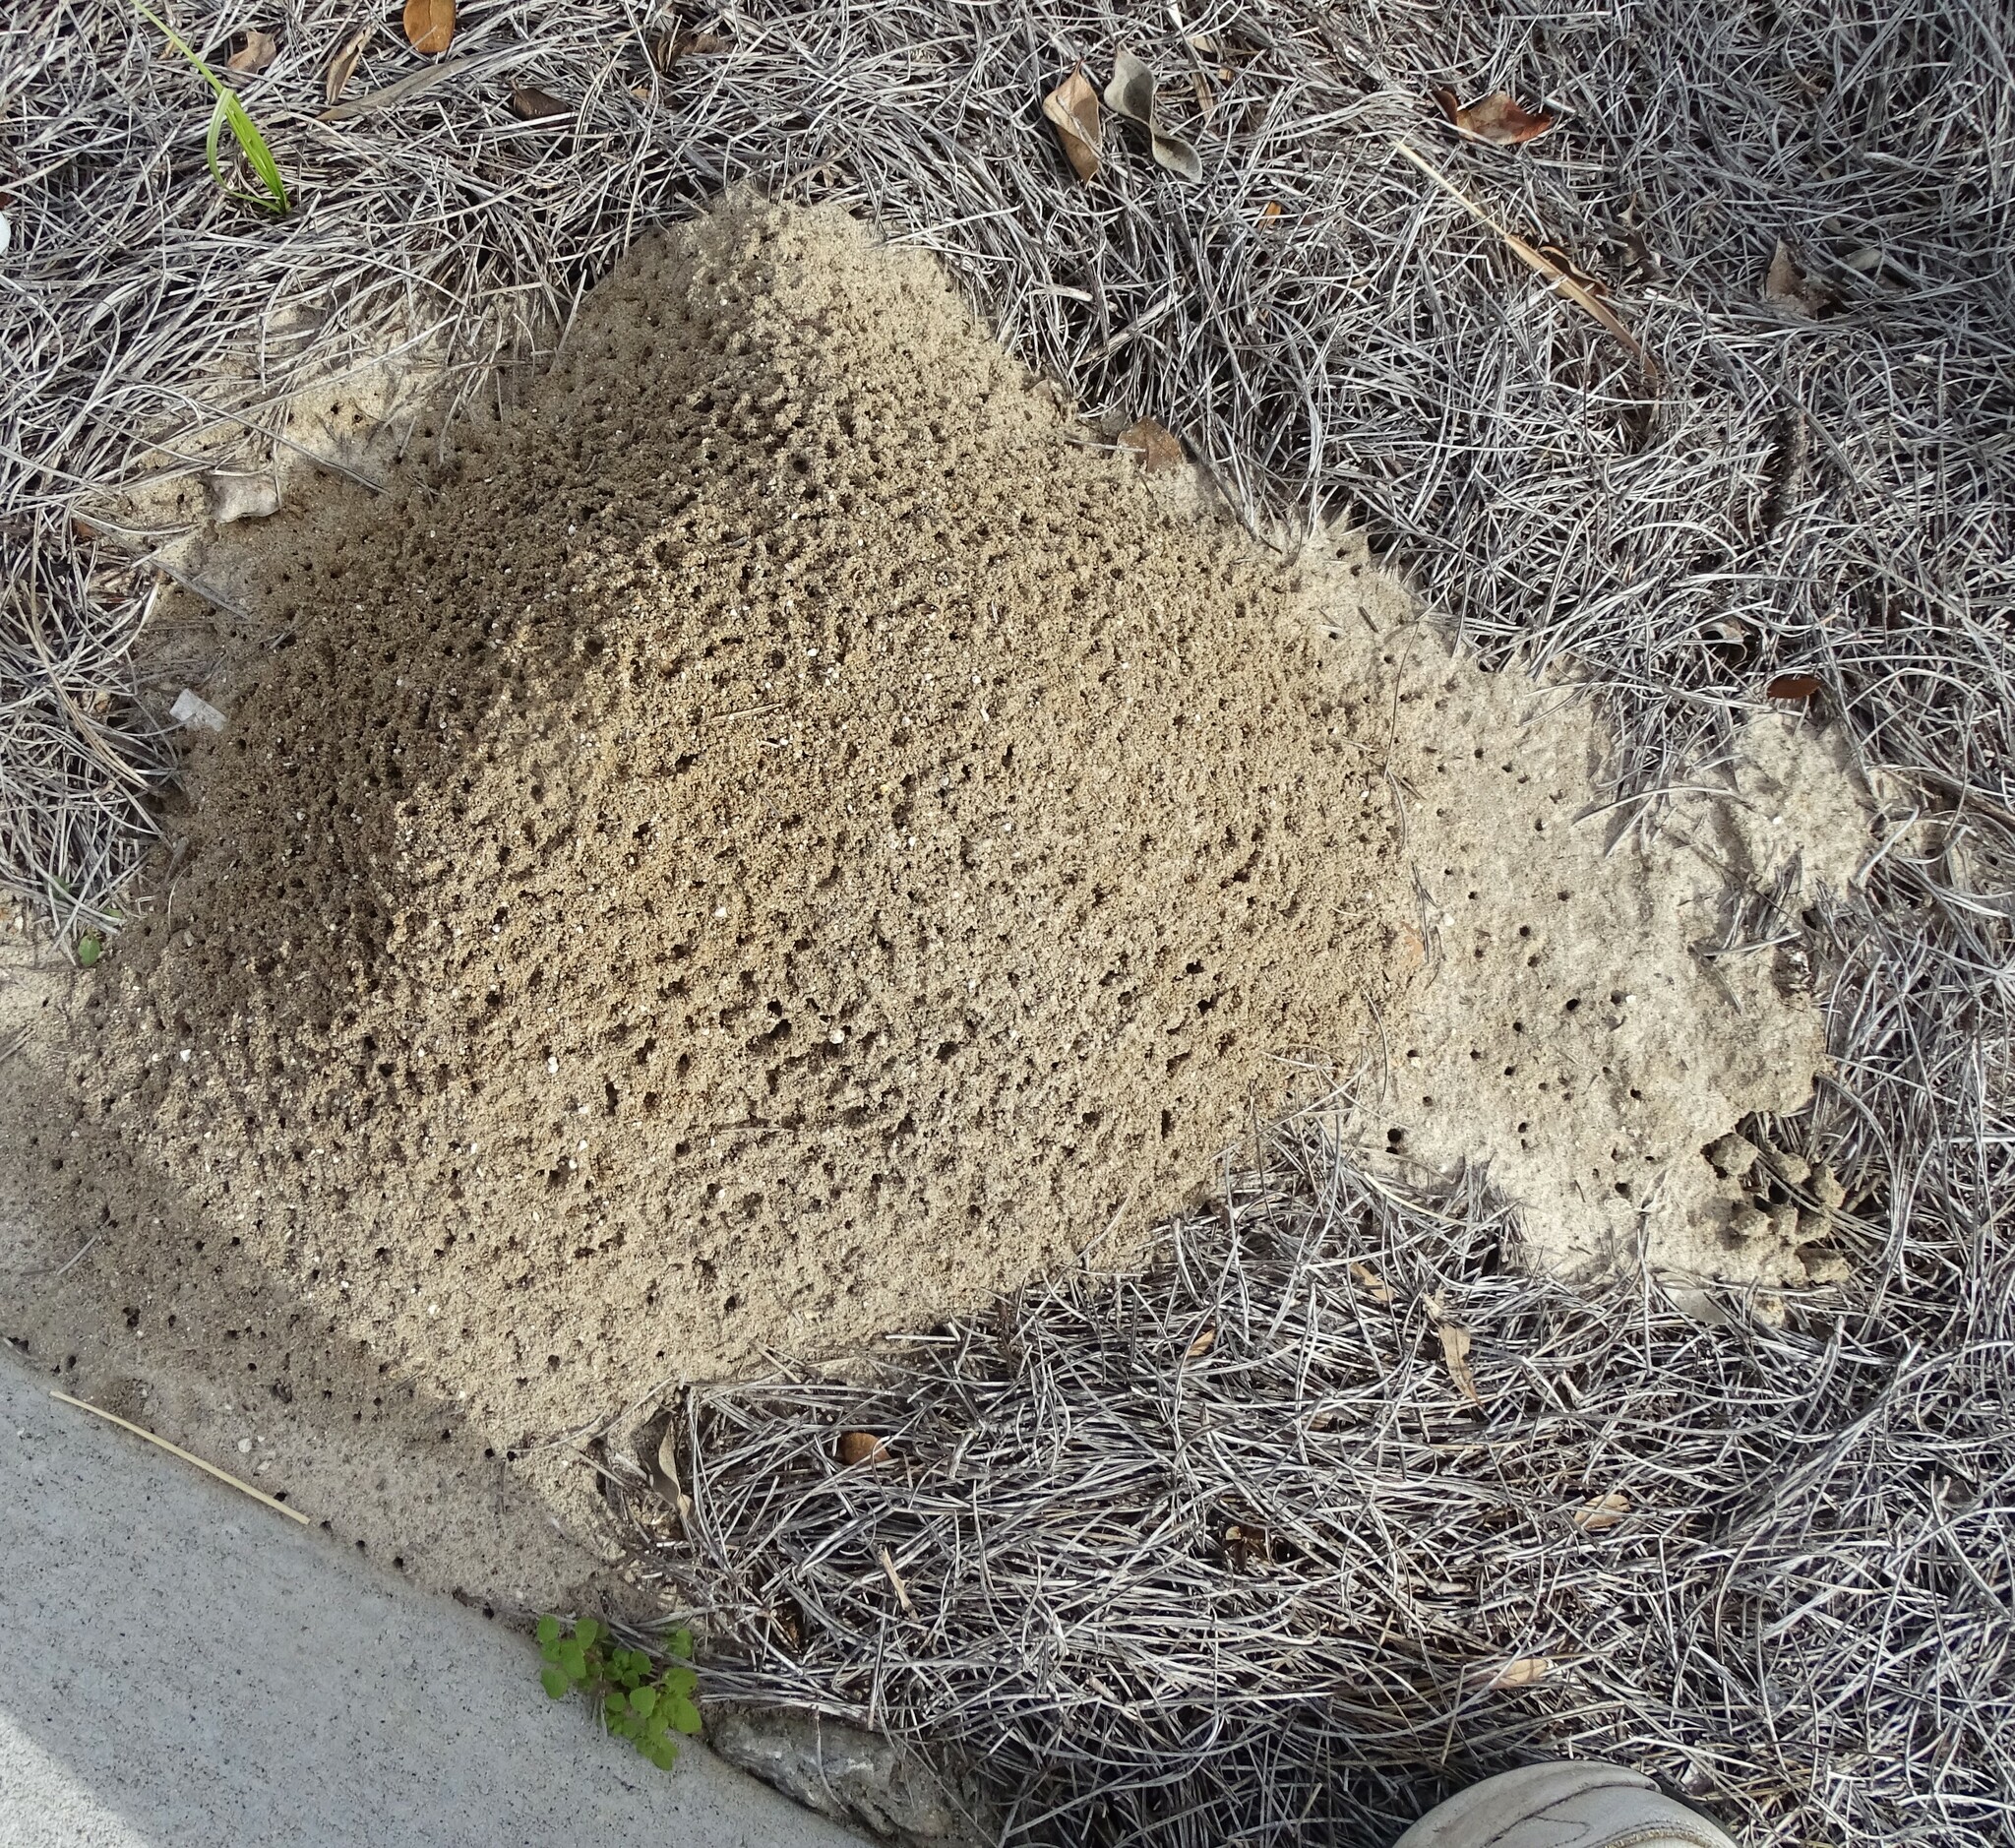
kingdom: Animalia
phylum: Arthropoda
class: Insecta
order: Hymenoptera
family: Formicidae
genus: Solenopsis
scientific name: Solenopsis invicta
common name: Red imported fire ant
